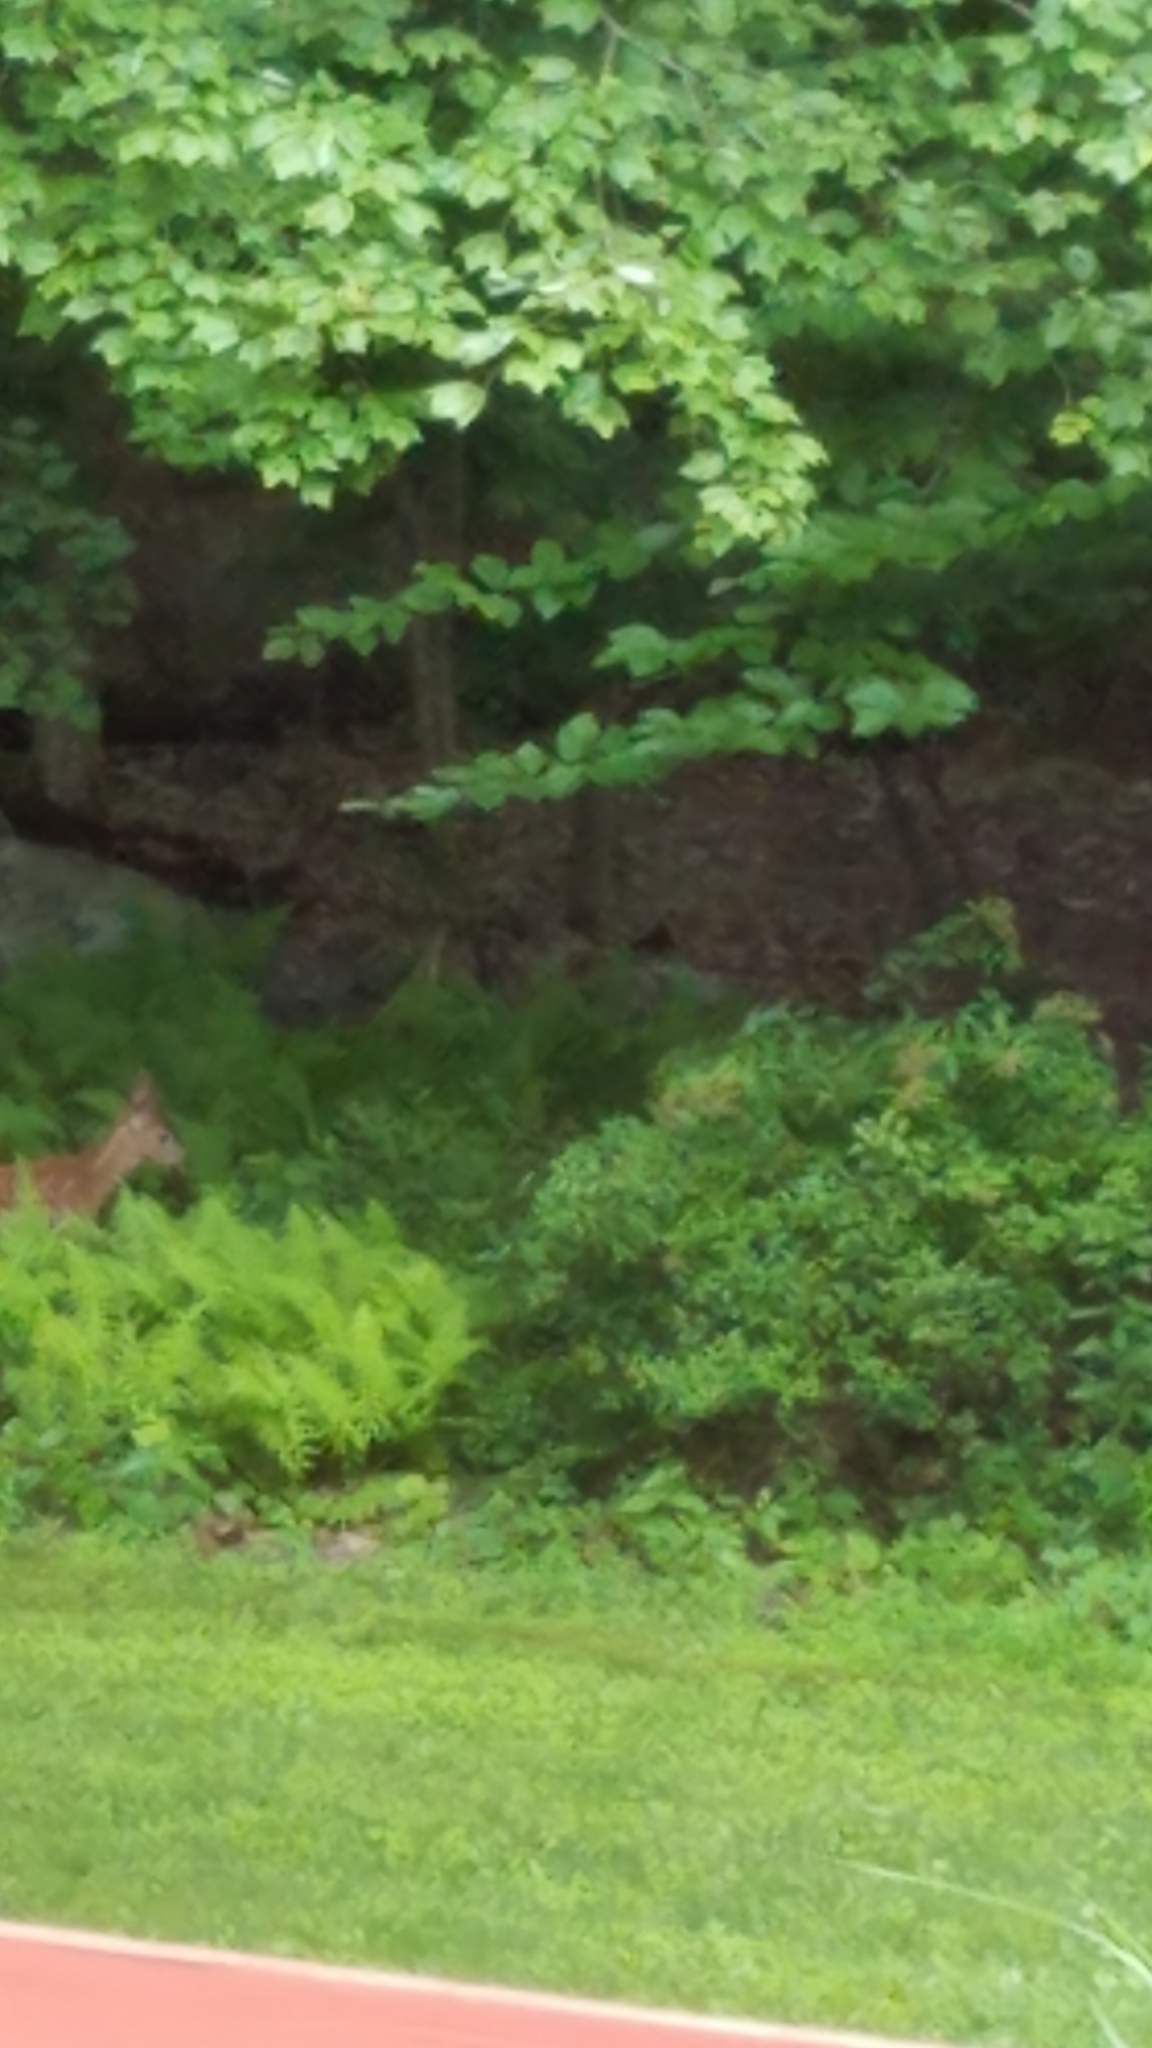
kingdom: Animalia
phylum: Chordata
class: Mammalia
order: Artiodactyla
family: Cervidae
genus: Odocoileus
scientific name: Odocoileus virginianus
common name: White-tailed deer
